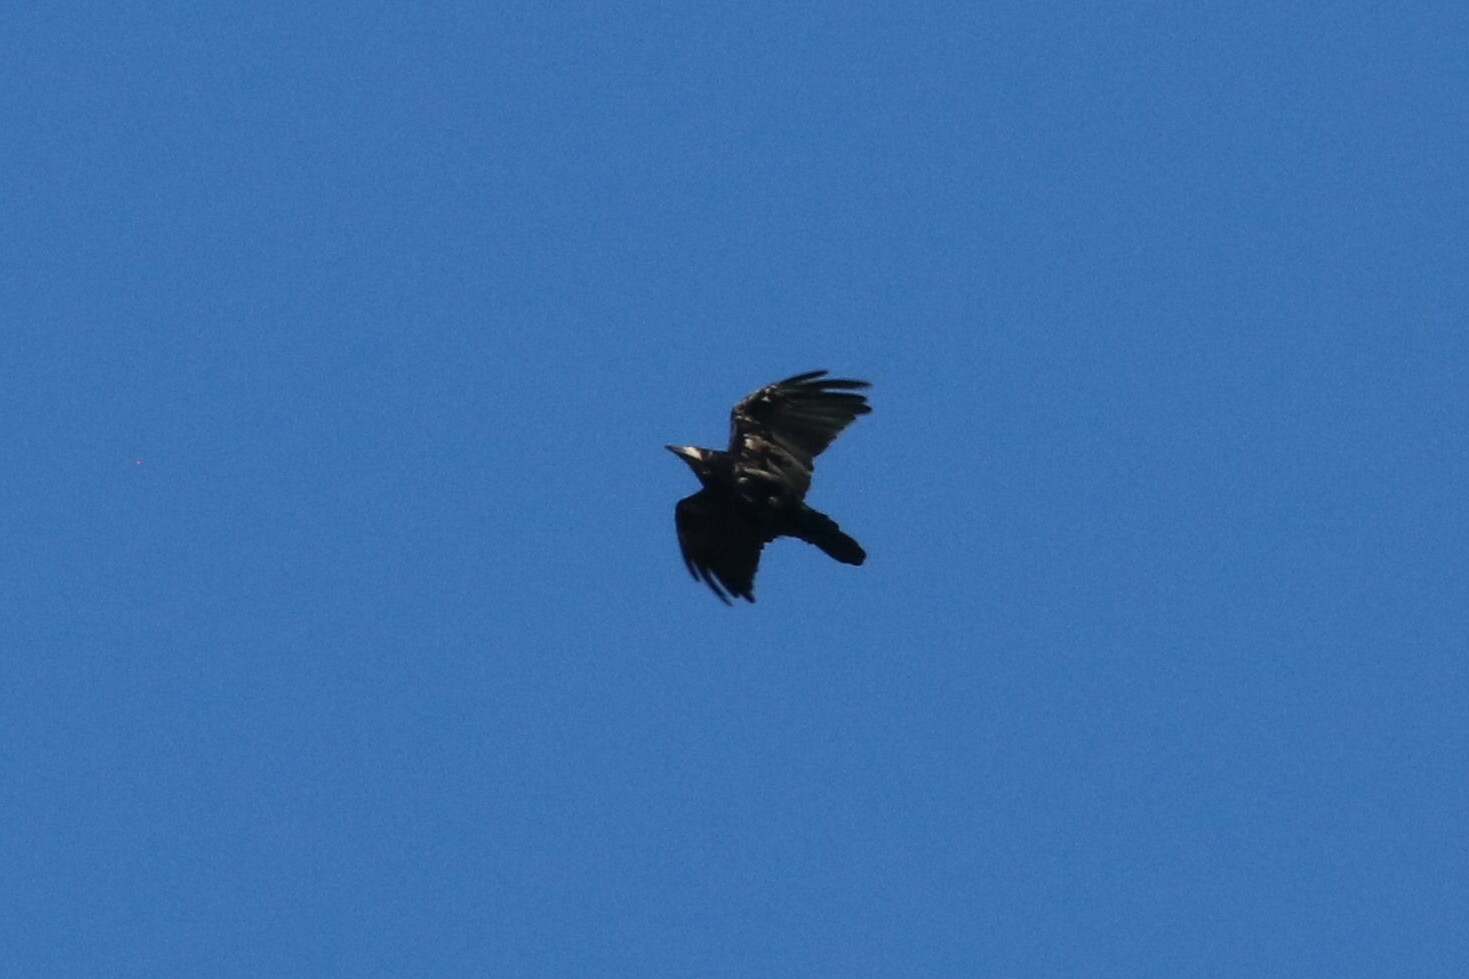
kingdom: Animalia
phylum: Chordata
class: Aves
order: Passeriformes
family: Corvidae
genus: Corvus
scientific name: Corvus frugilegus
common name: Rook
